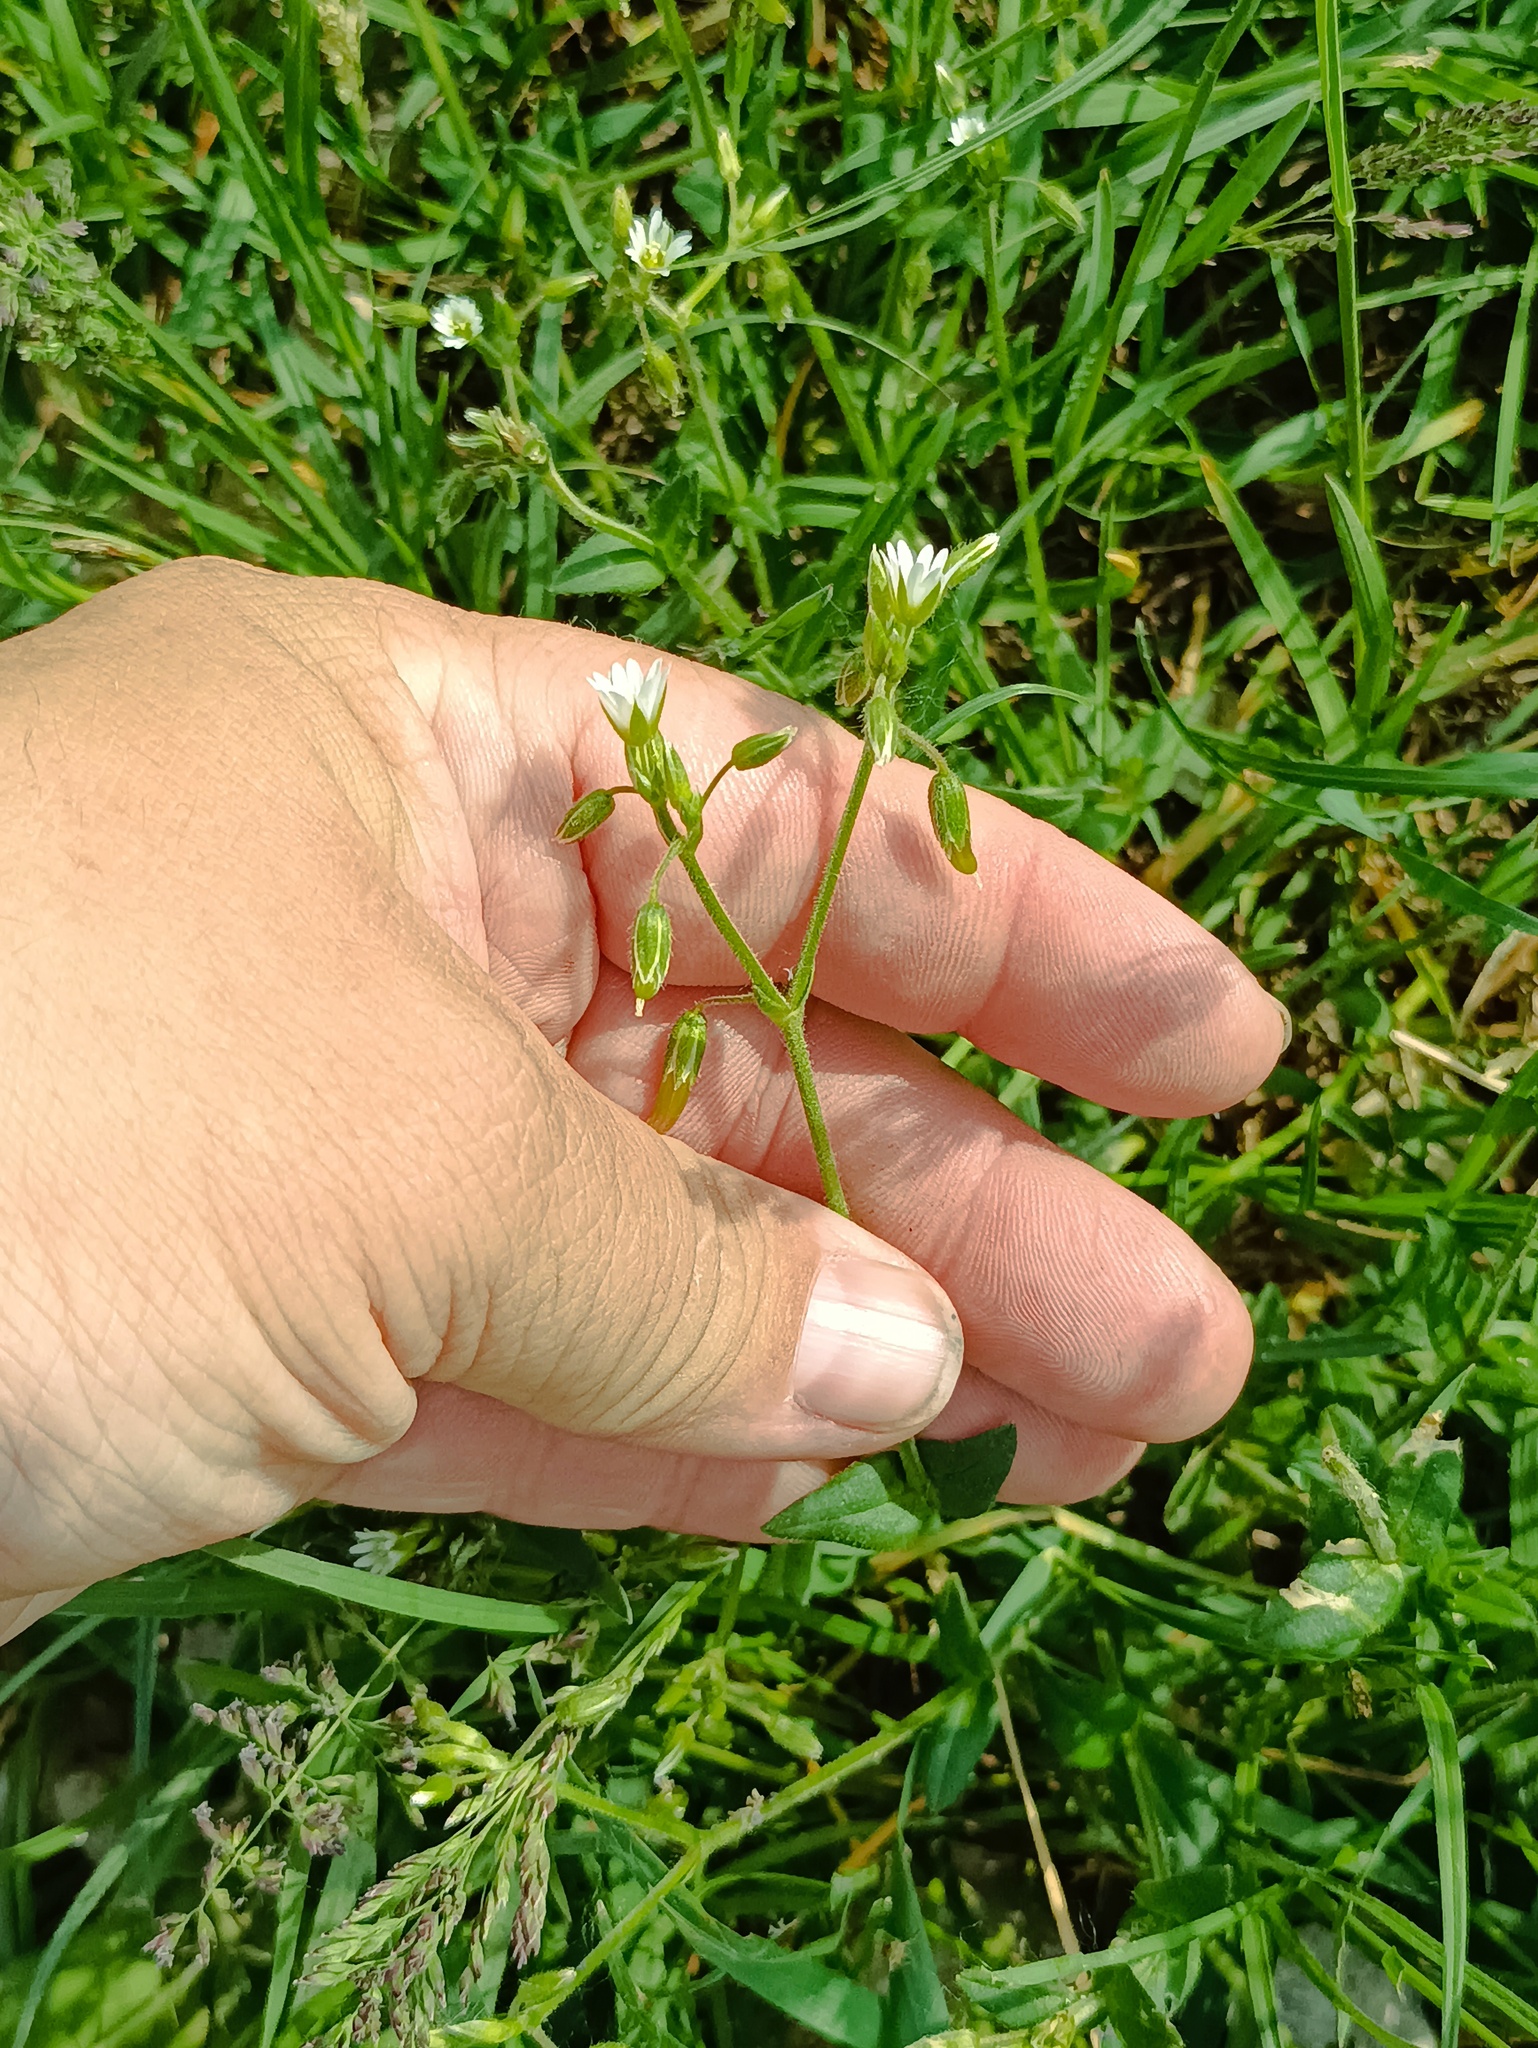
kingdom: Plantae
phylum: Tracheophyta
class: Magnoliopsida
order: Caryophyllales
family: Caryophyllaceae
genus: Cerastium
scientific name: Cerastium holosteoides
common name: Big chickweed
